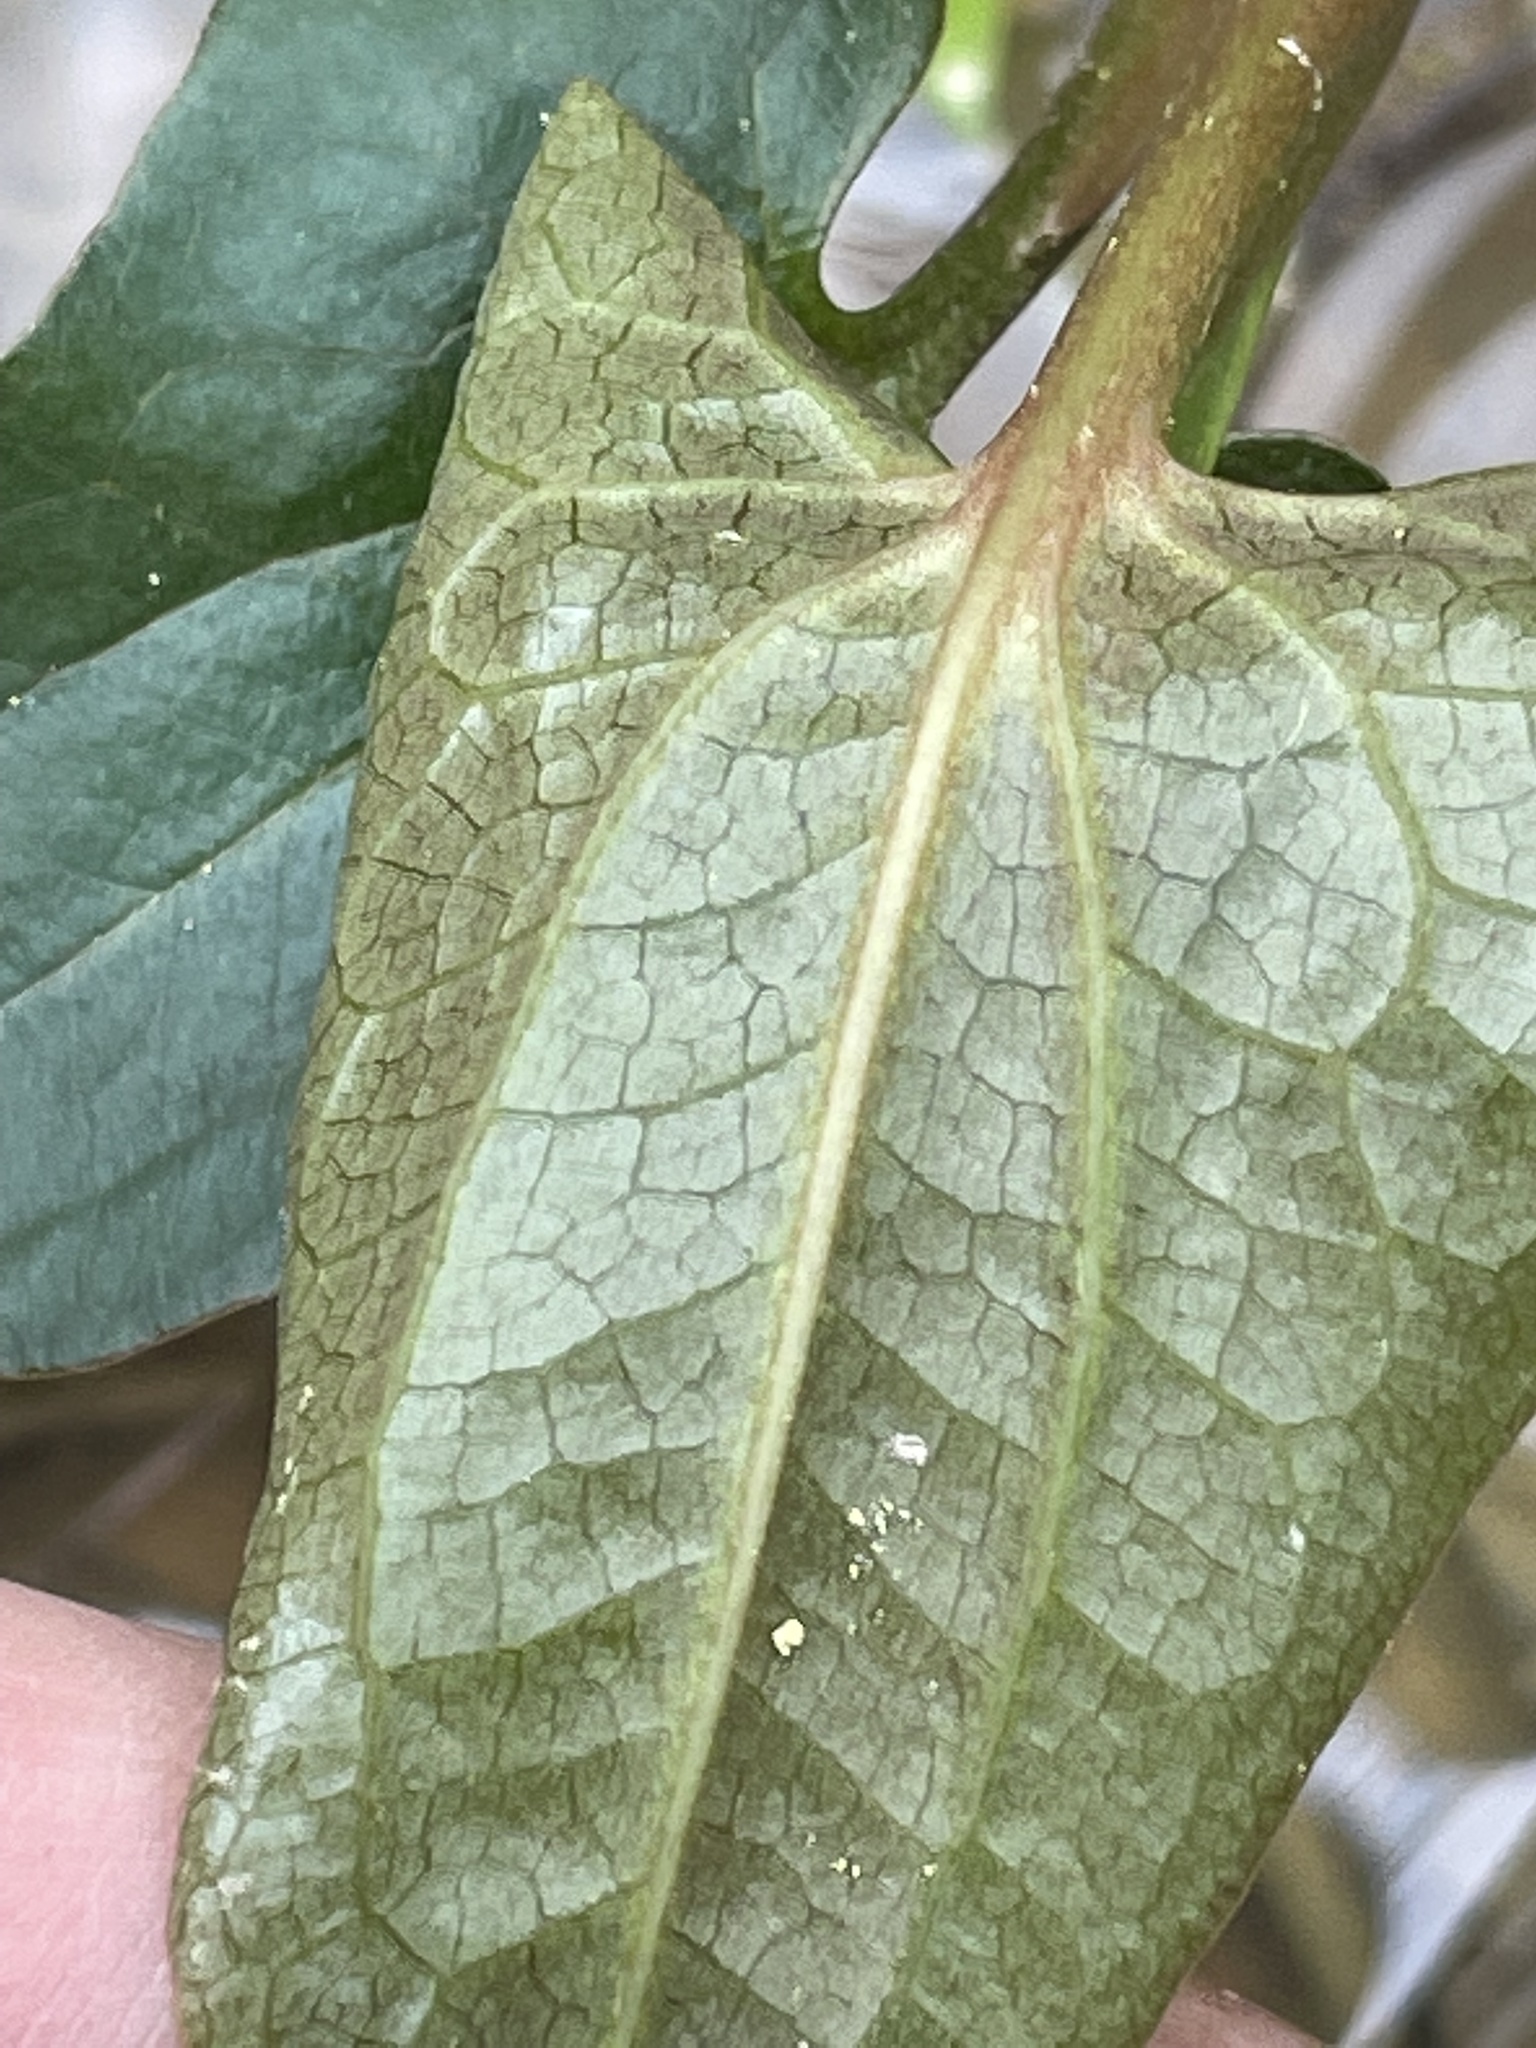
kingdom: Plantae
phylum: Tracheophyta
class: Magnoliopsida
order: Piperales
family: Saururaceae
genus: Saururus
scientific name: Saururus cernuus
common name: Lizard's-tail
